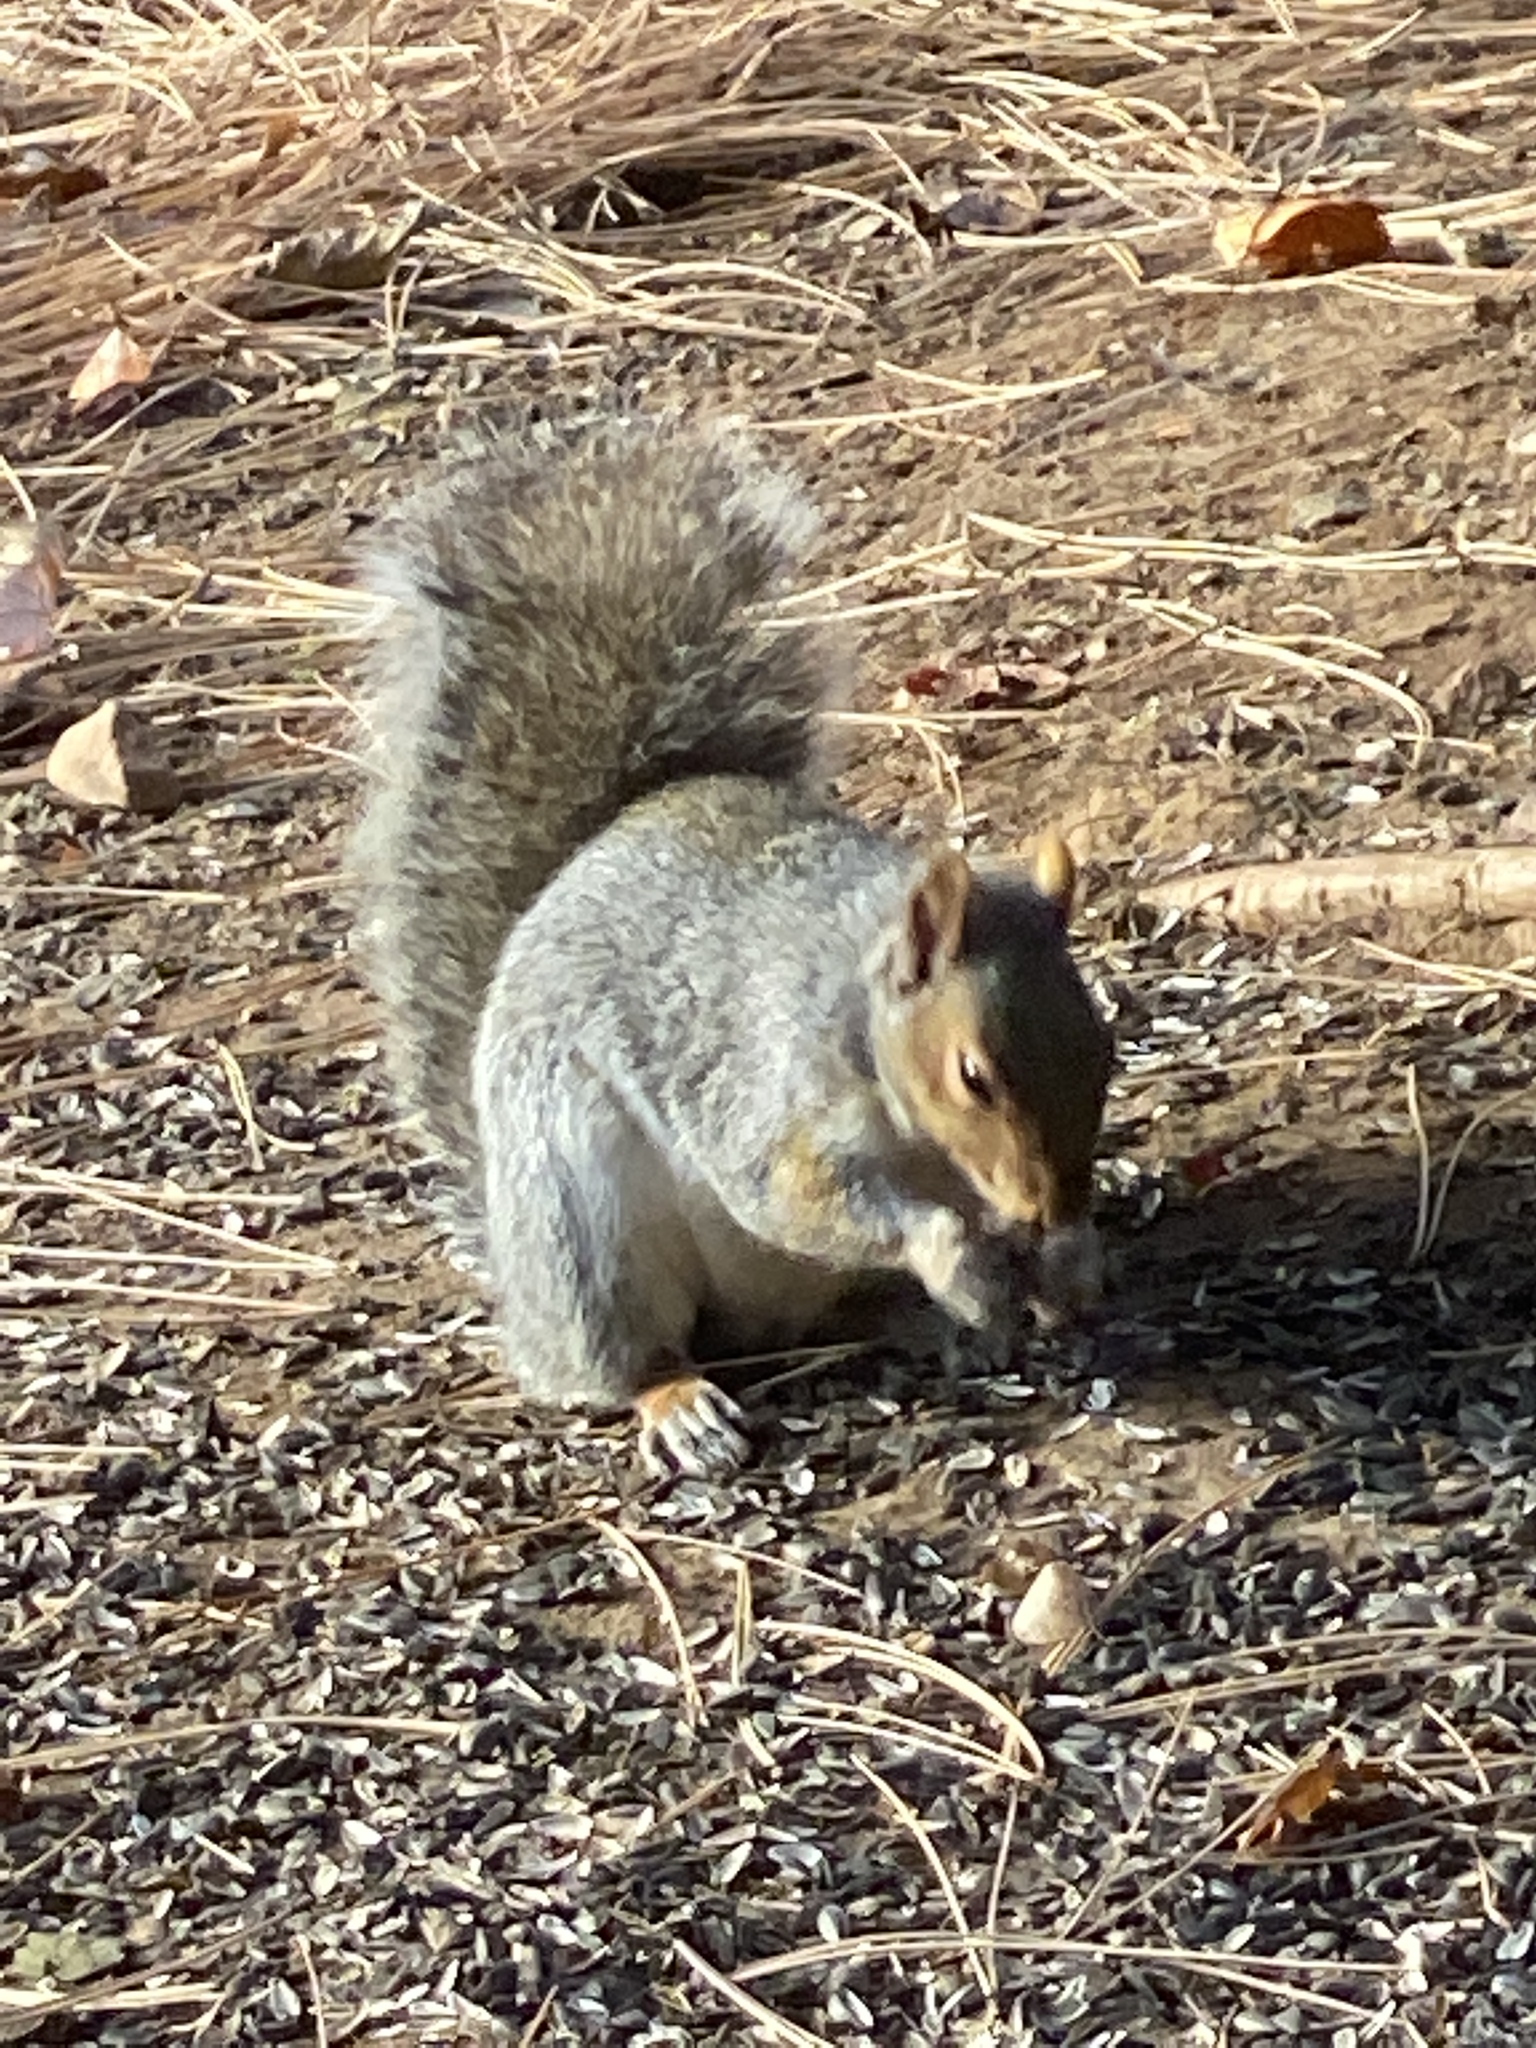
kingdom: Animalia
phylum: Chordata
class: Mammalia
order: Rodentia
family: Sciuridae
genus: Sciurus
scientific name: Sciurus carolinensis
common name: Eastern gray squirrel
